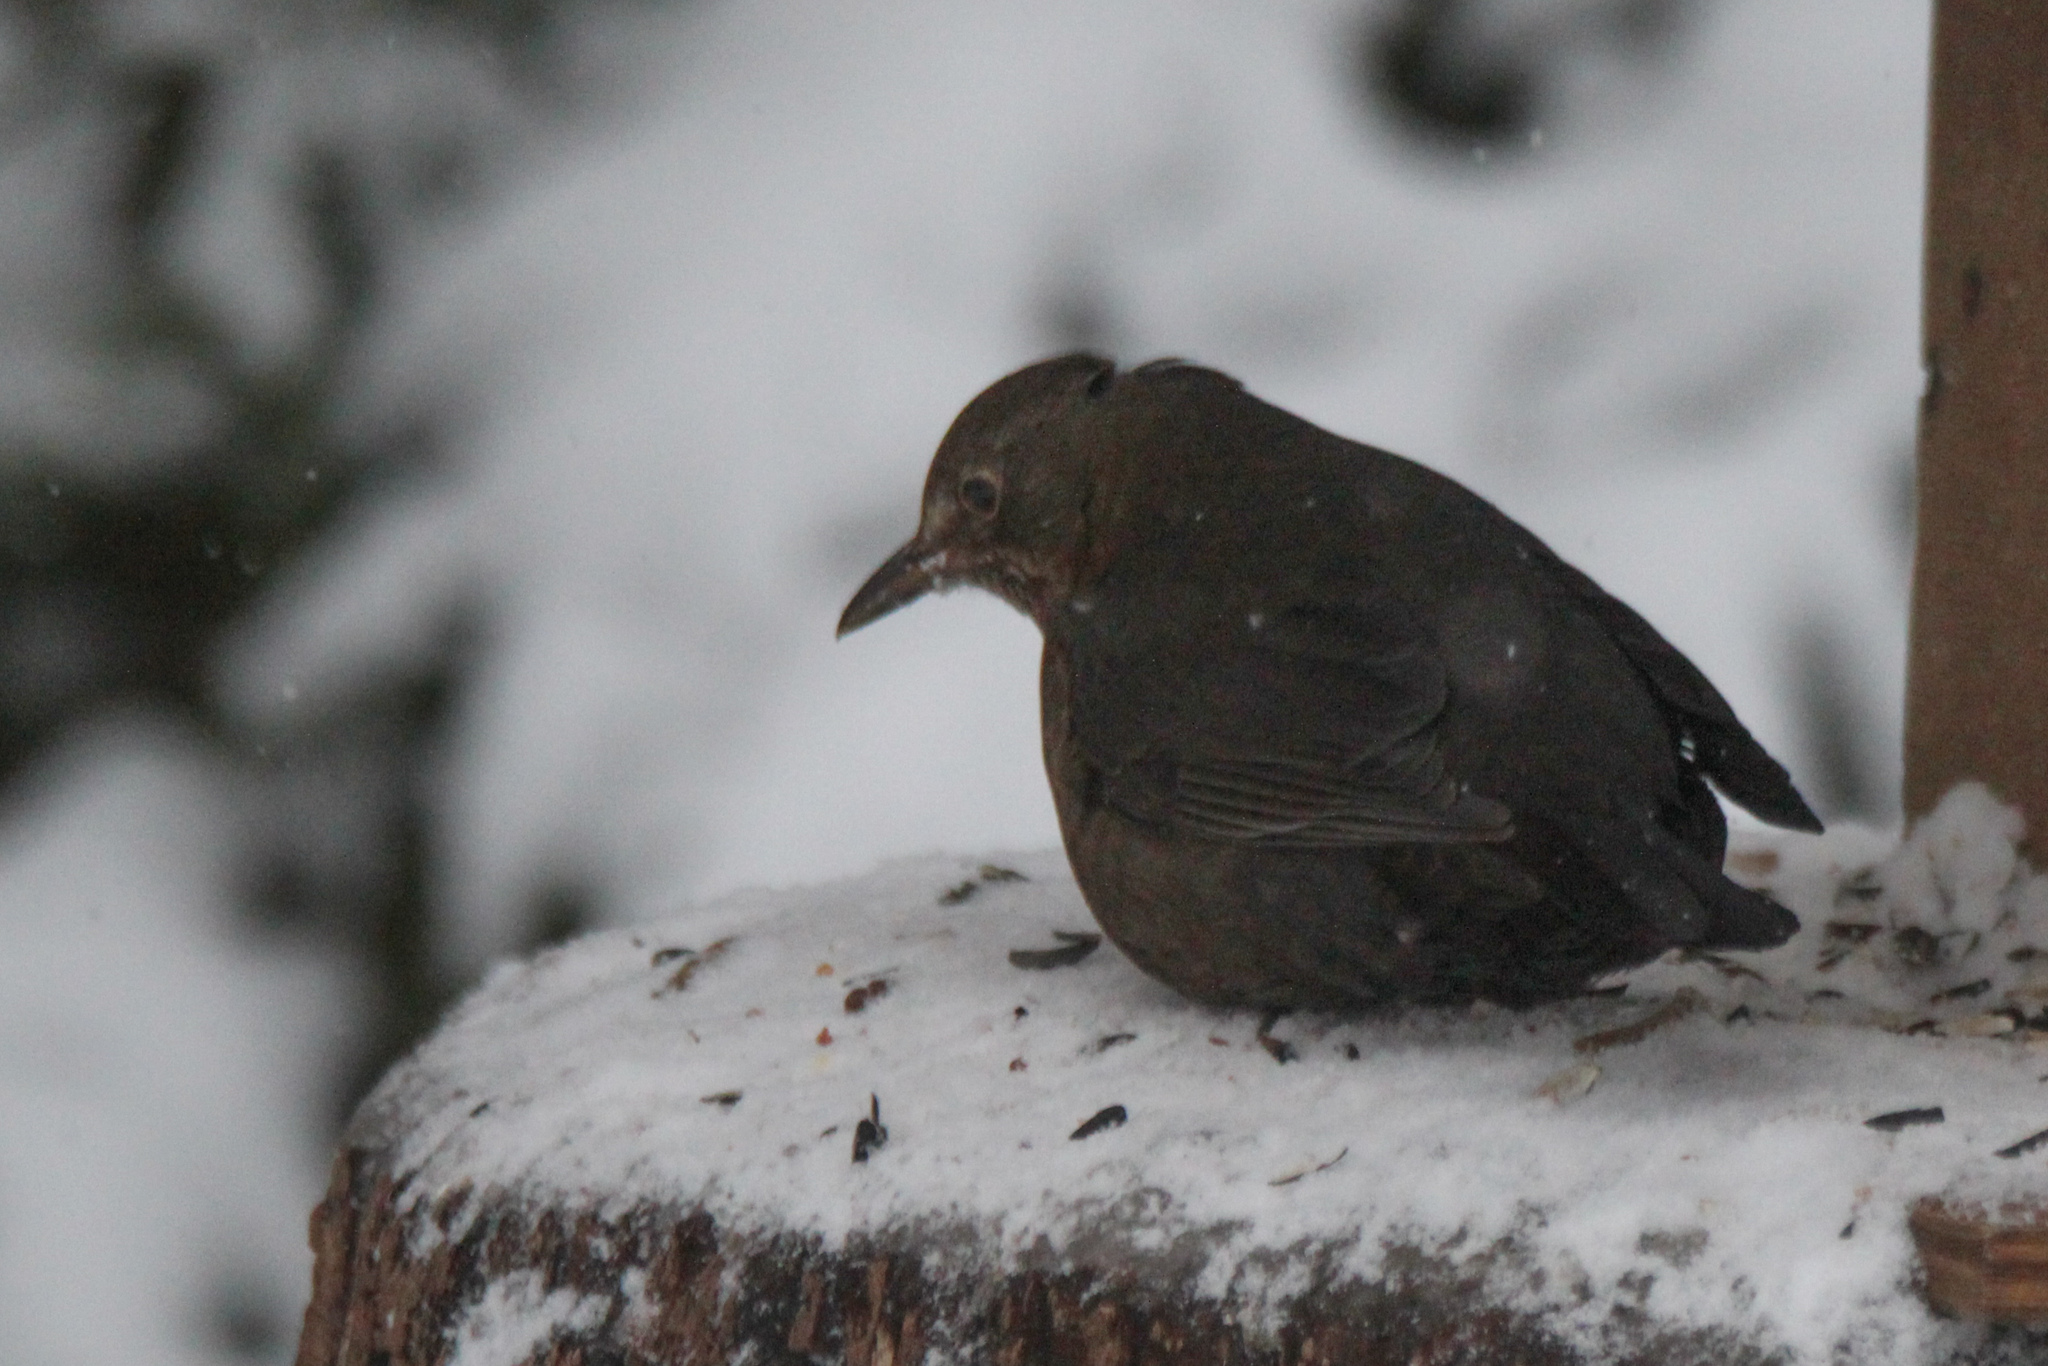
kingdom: Animalia
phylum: Chordata
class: Aves
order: Passeriformes
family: Turdidae
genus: Turdus
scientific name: Turdus merula
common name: Common blackbird
